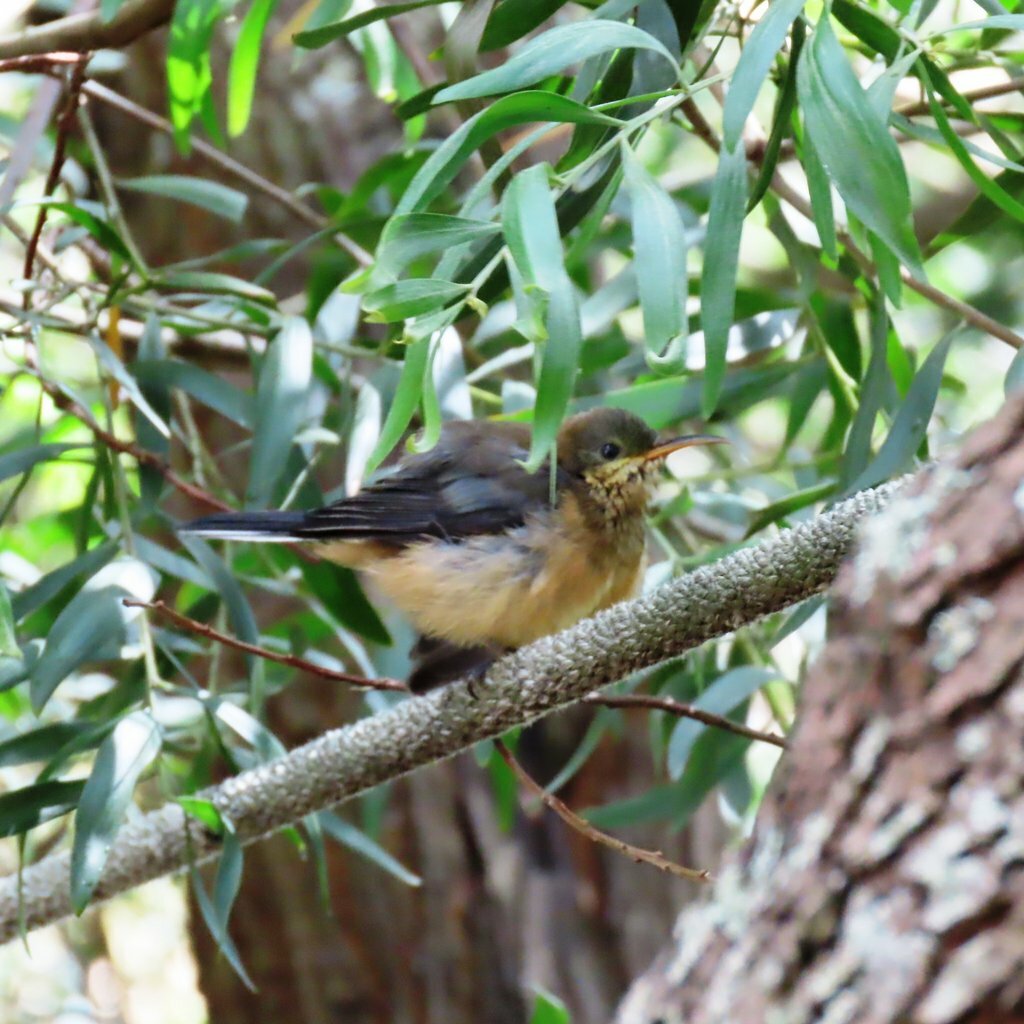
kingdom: Animalia
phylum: Chordata
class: Aves
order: Passeriformes
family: Meliphagidae
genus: Acanthorhynchus
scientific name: Acanthorhynchus tenuirostris
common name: Eastern spinebill
